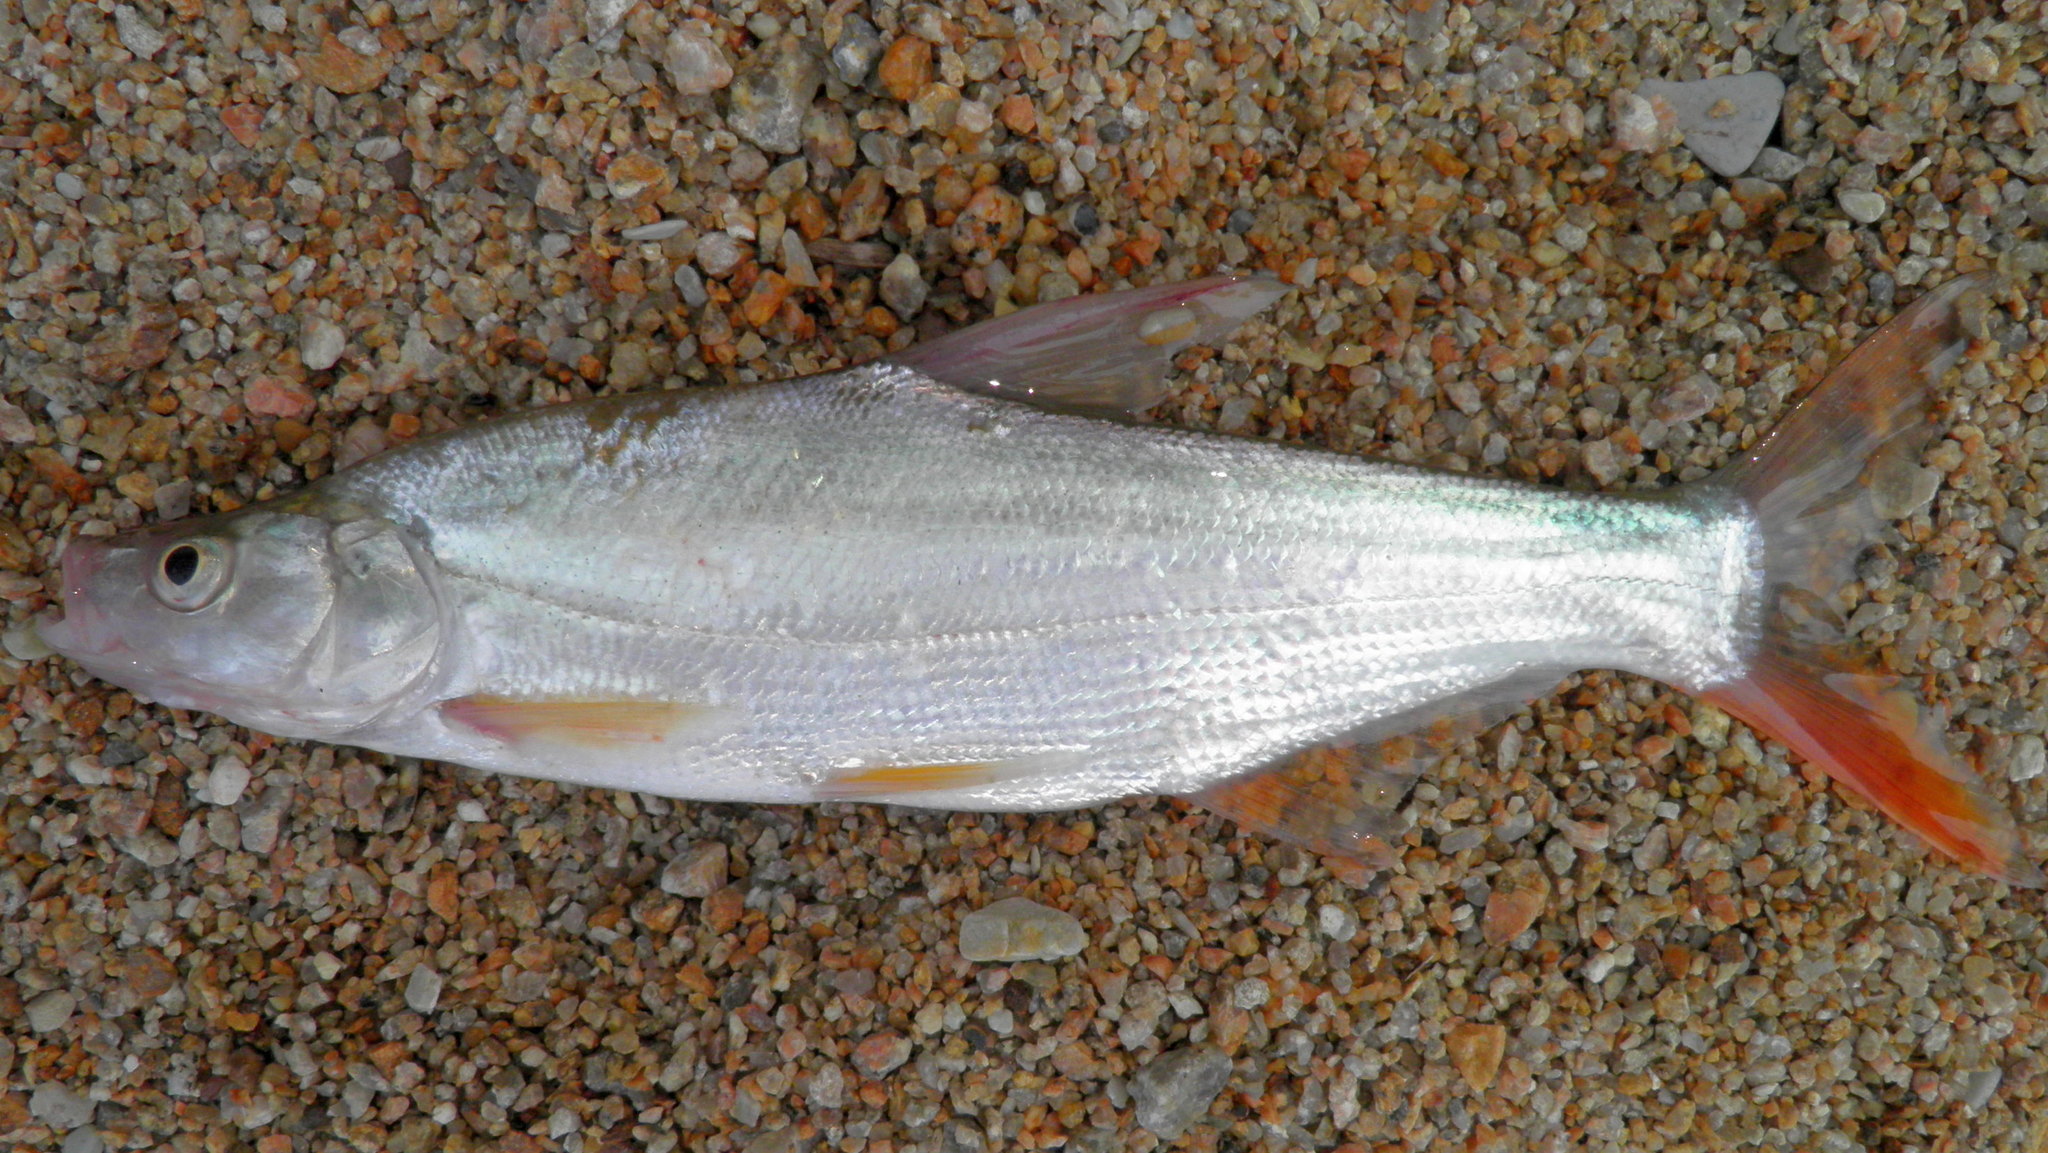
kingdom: Animalia
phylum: Chordata
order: Cypriniformes
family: Cyprinidae
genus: Chanodichthys
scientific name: Chanodichthys mongolicus
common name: Mongolian redfin
